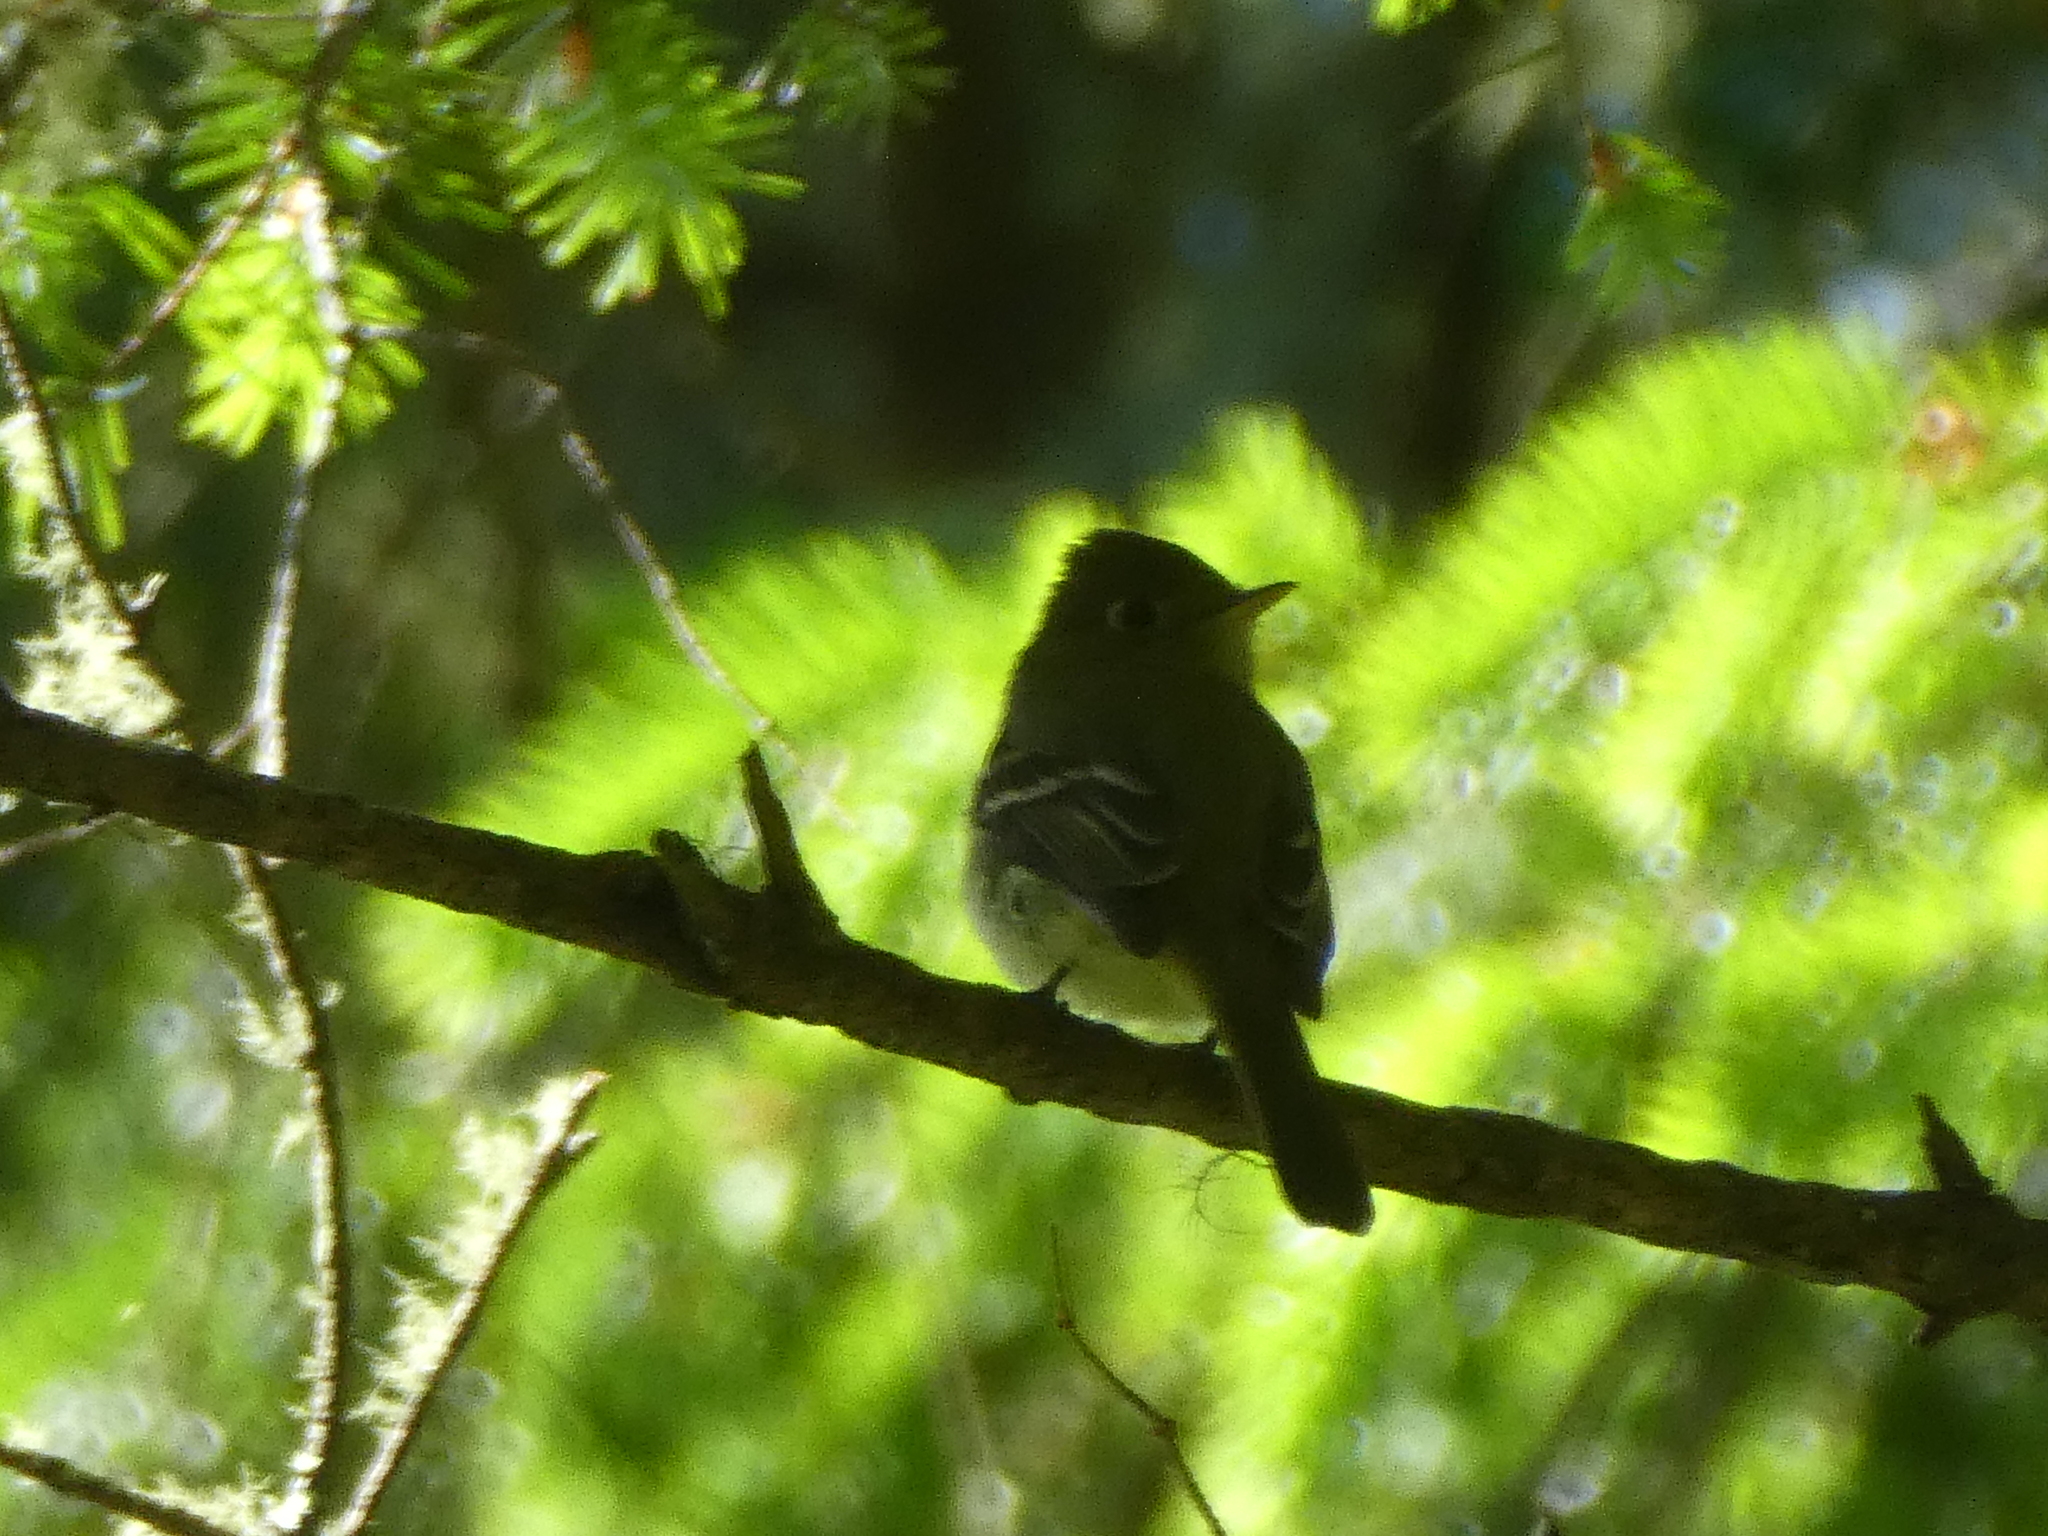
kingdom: Animalia
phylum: Chordata
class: Aves
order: Passeriformes
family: Tyrannidae
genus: Empidonax
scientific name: Empidonax difficilis
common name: Pacific-slope flycatcher
